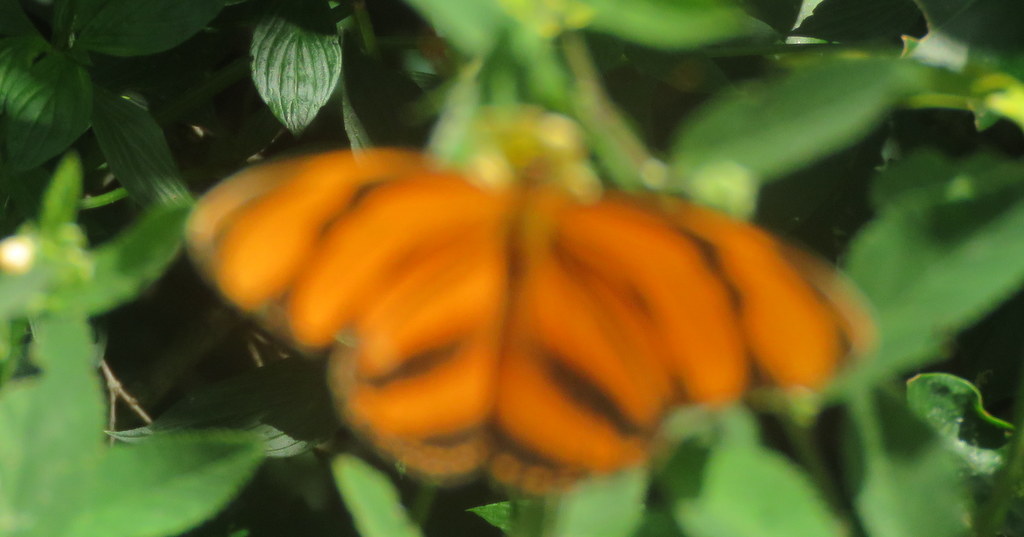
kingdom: Animalia
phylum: Arthropoda
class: Insecta
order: Lepidoptera
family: Nymphalidae
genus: Dryadula
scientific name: Dryadula phaetusa
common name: Banded orange heliconian
